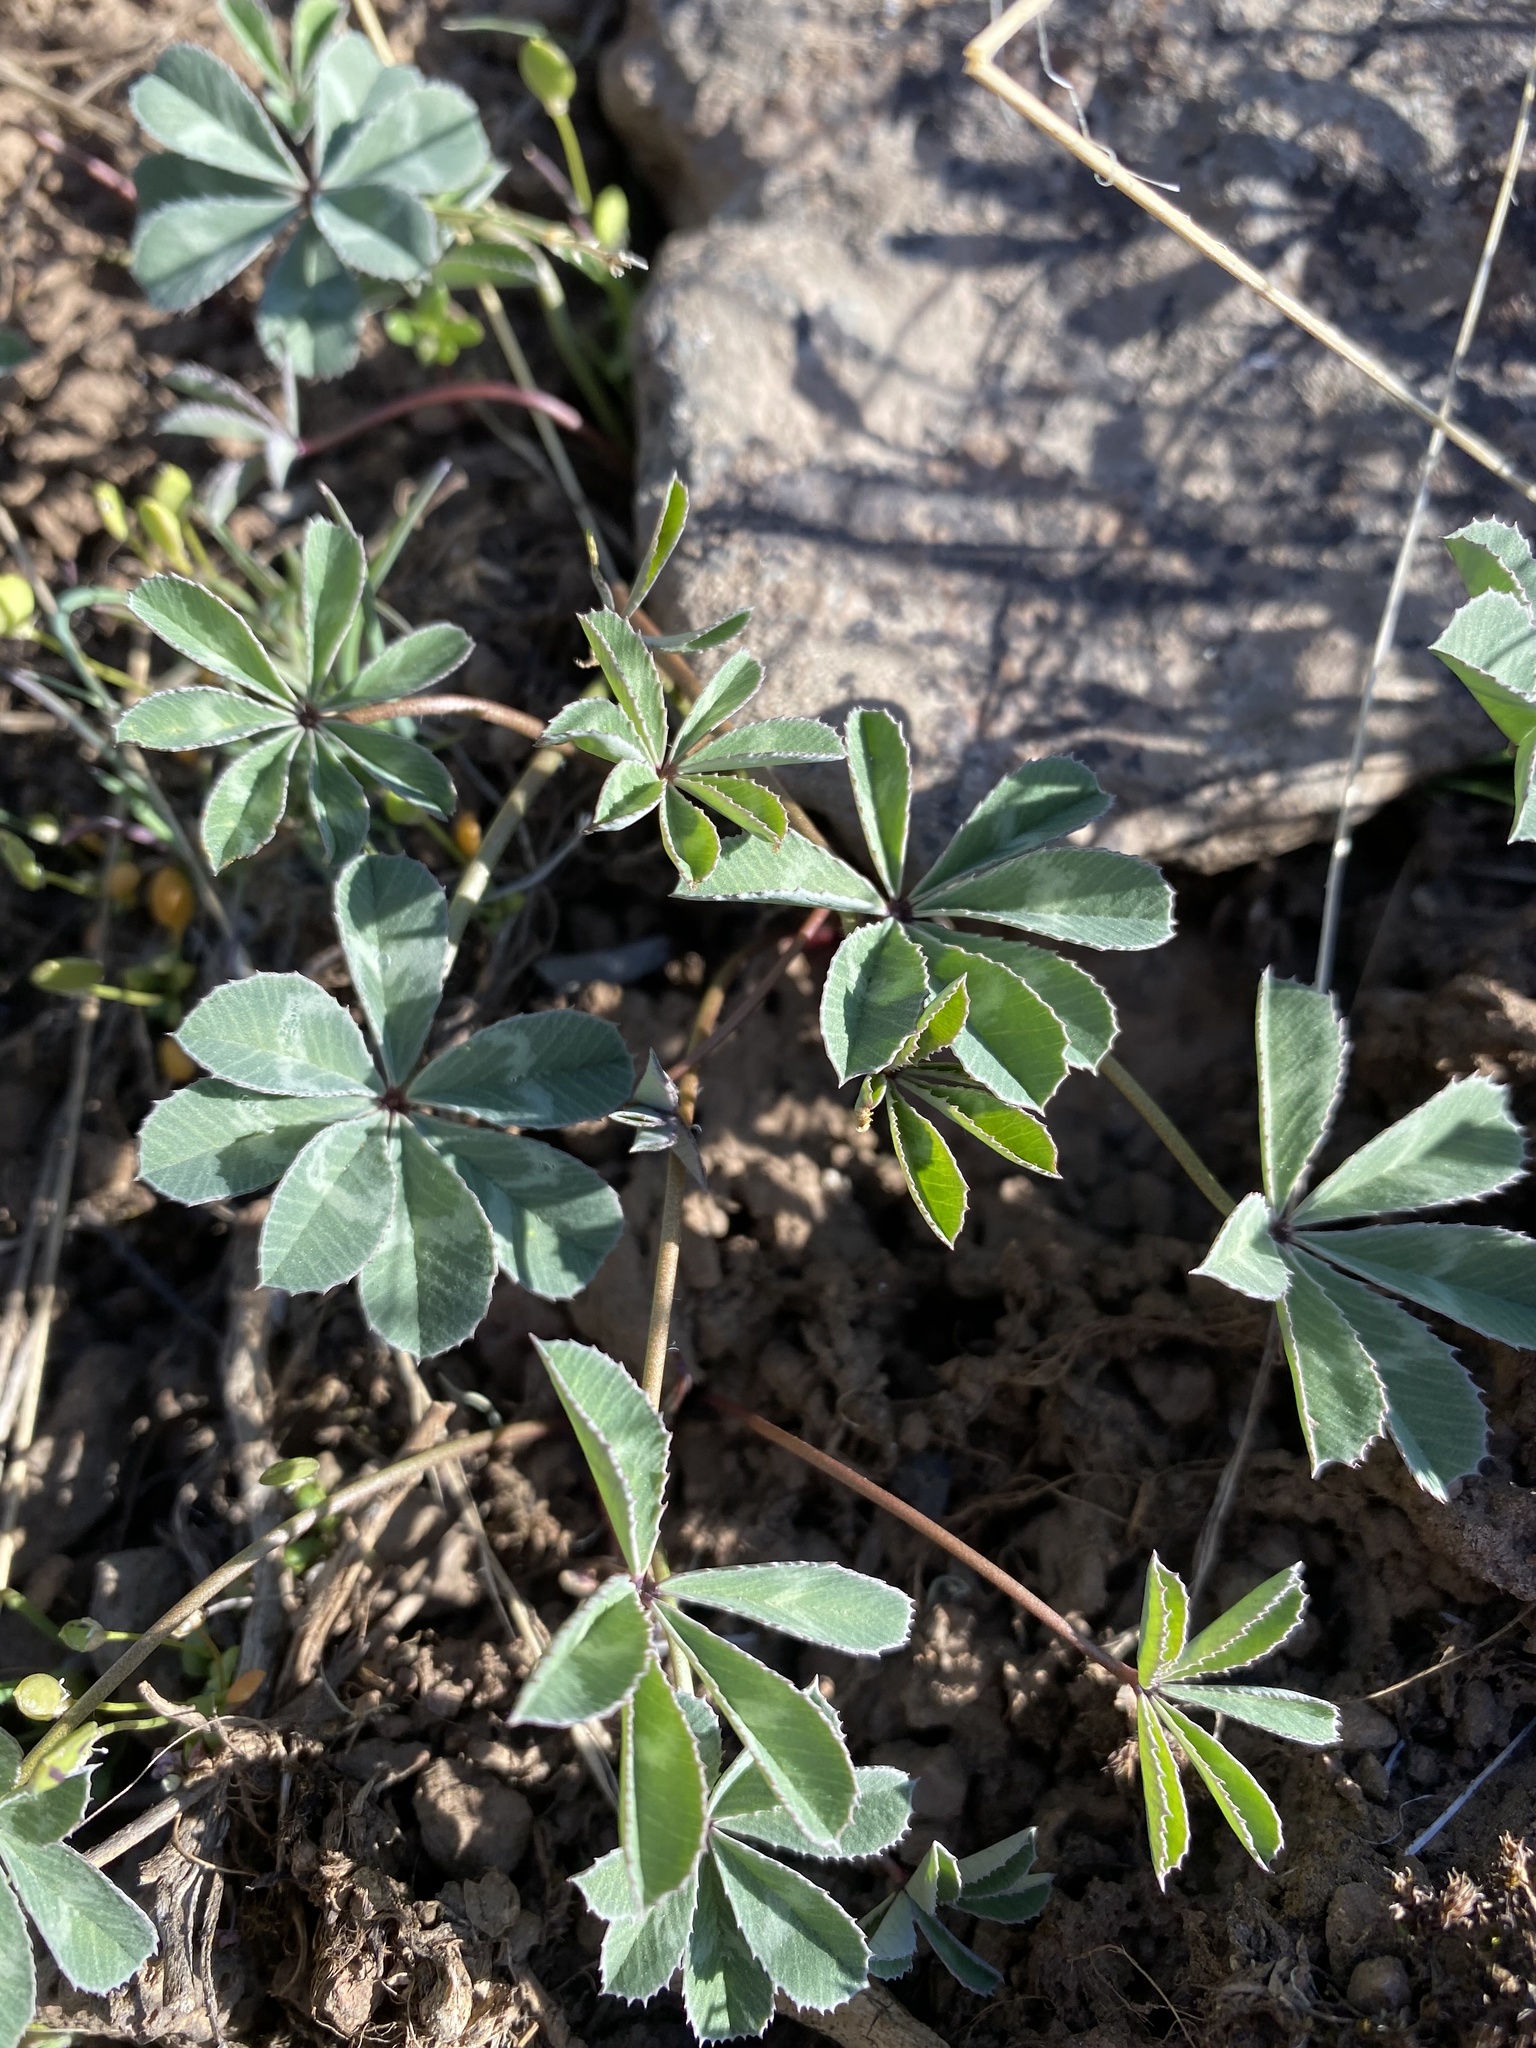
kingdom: Plantae
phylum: Tracheophyta
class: Magnoliopsida
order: Fabales
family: Fabaceae
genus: Trifolium
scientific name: Trifolium macrocephalum
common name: Large-head clover
